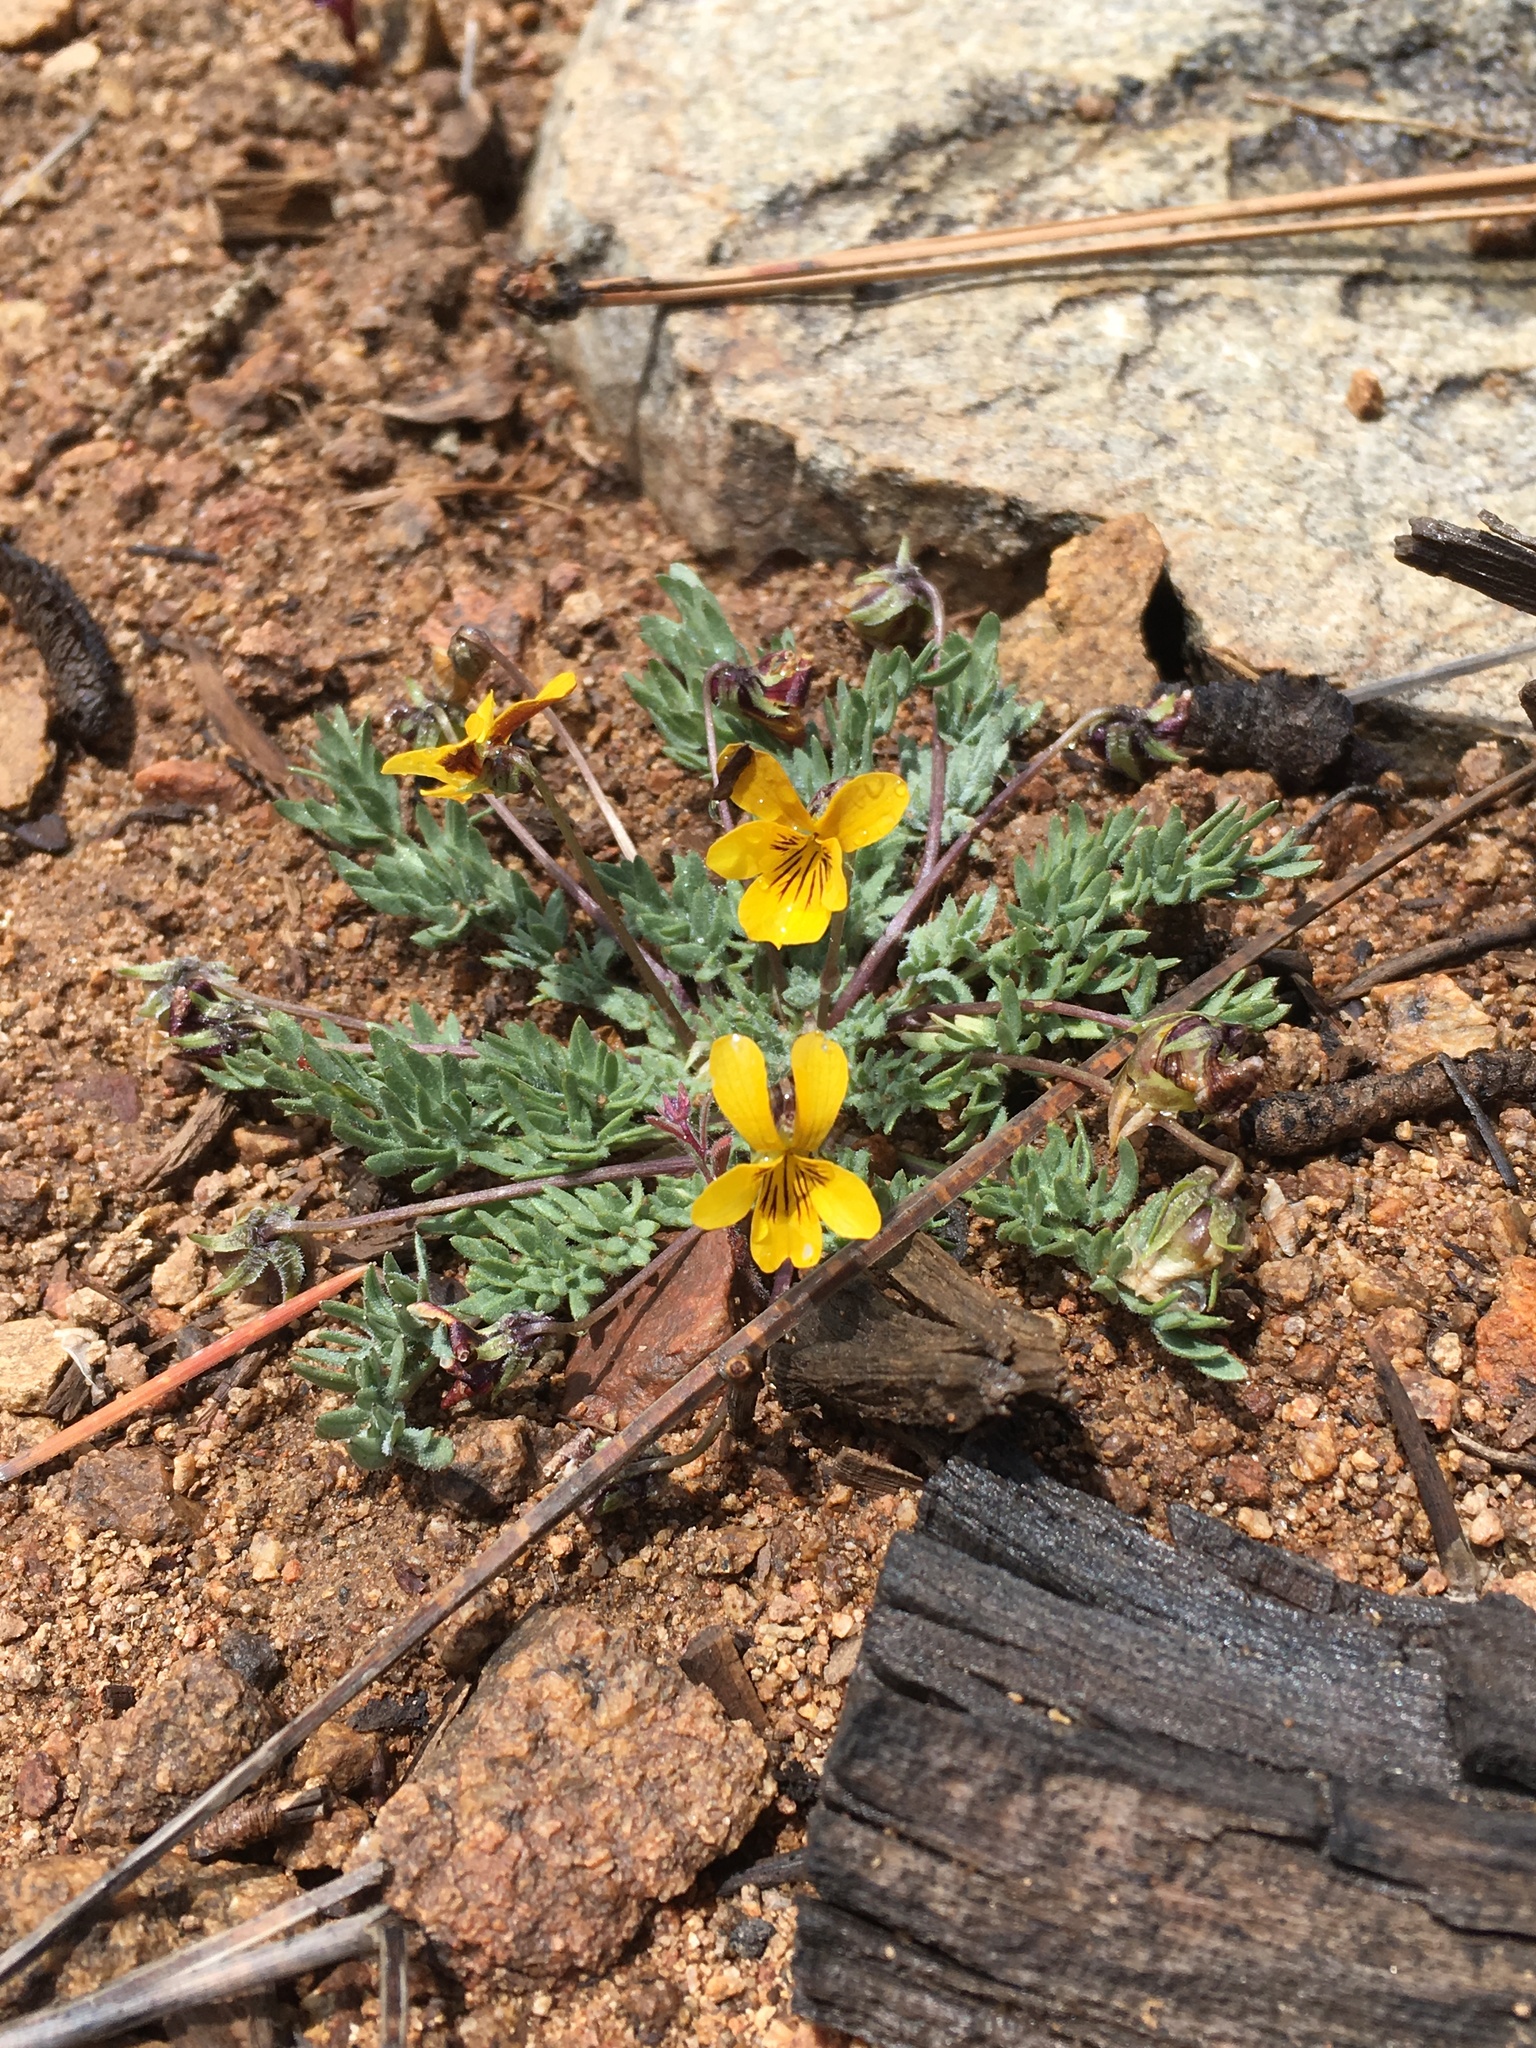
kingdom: Plantae
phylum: Tracheophyta
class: Magnoliopsida
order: Malpighiales
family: Violaceae
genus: Viola
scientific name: Viola douglasii
